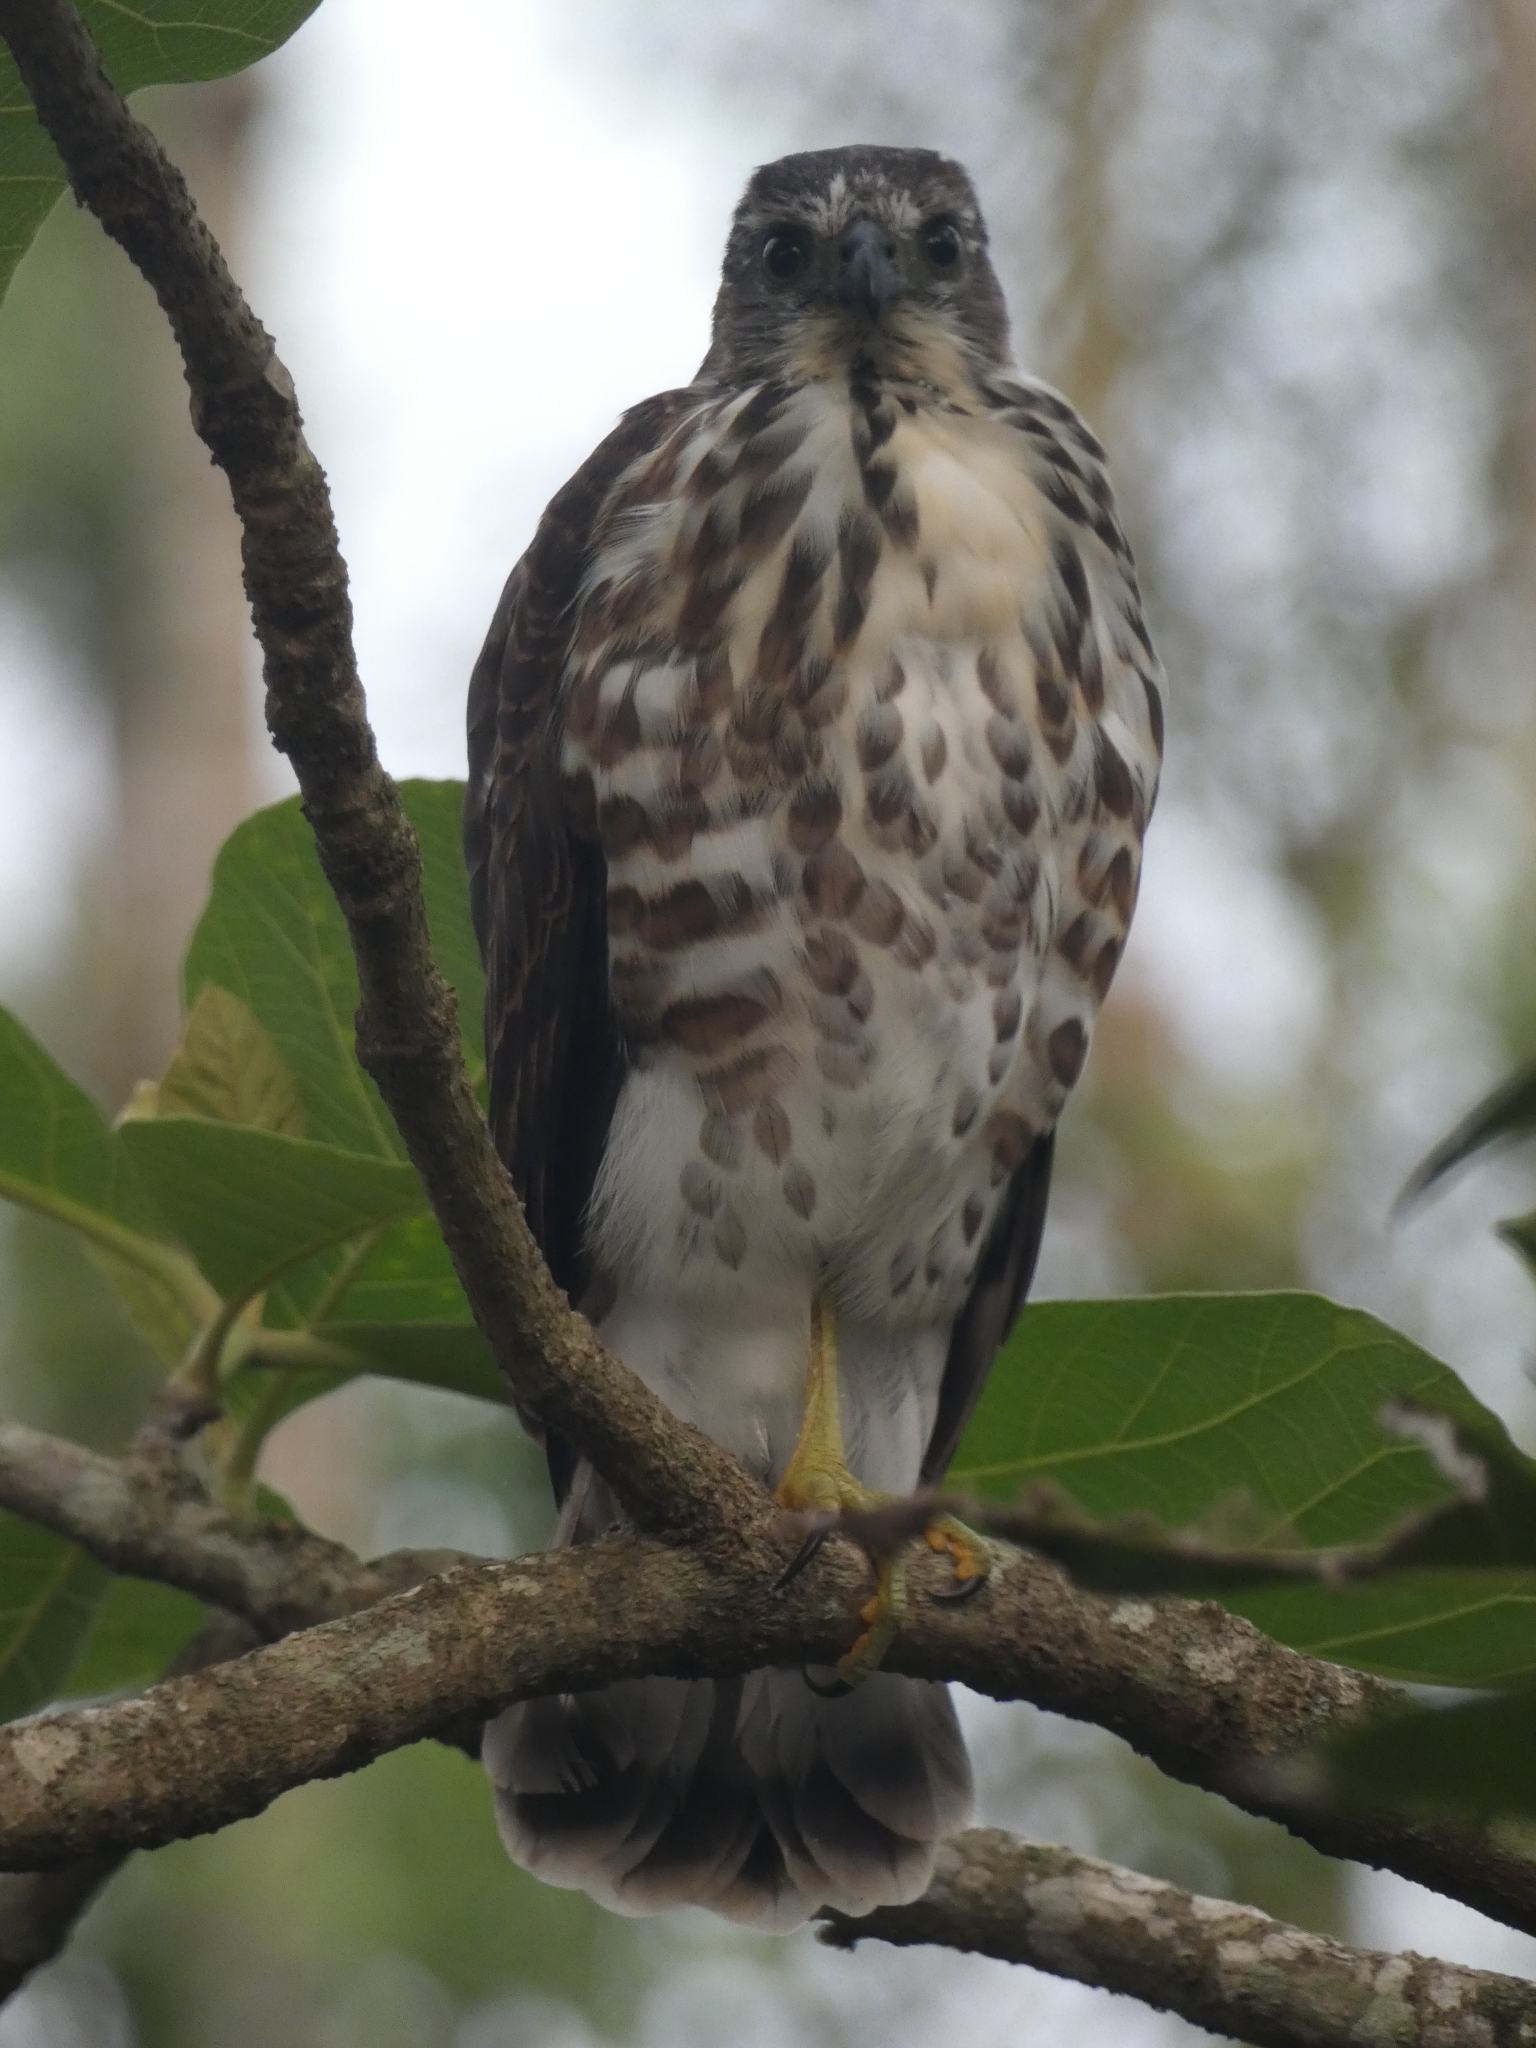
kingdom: Animalia
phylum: Chordata
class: Aves
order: Accipitriformes
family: Accipitridae
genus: Accipiter
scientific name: Accipiter virgatus
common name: Besra
